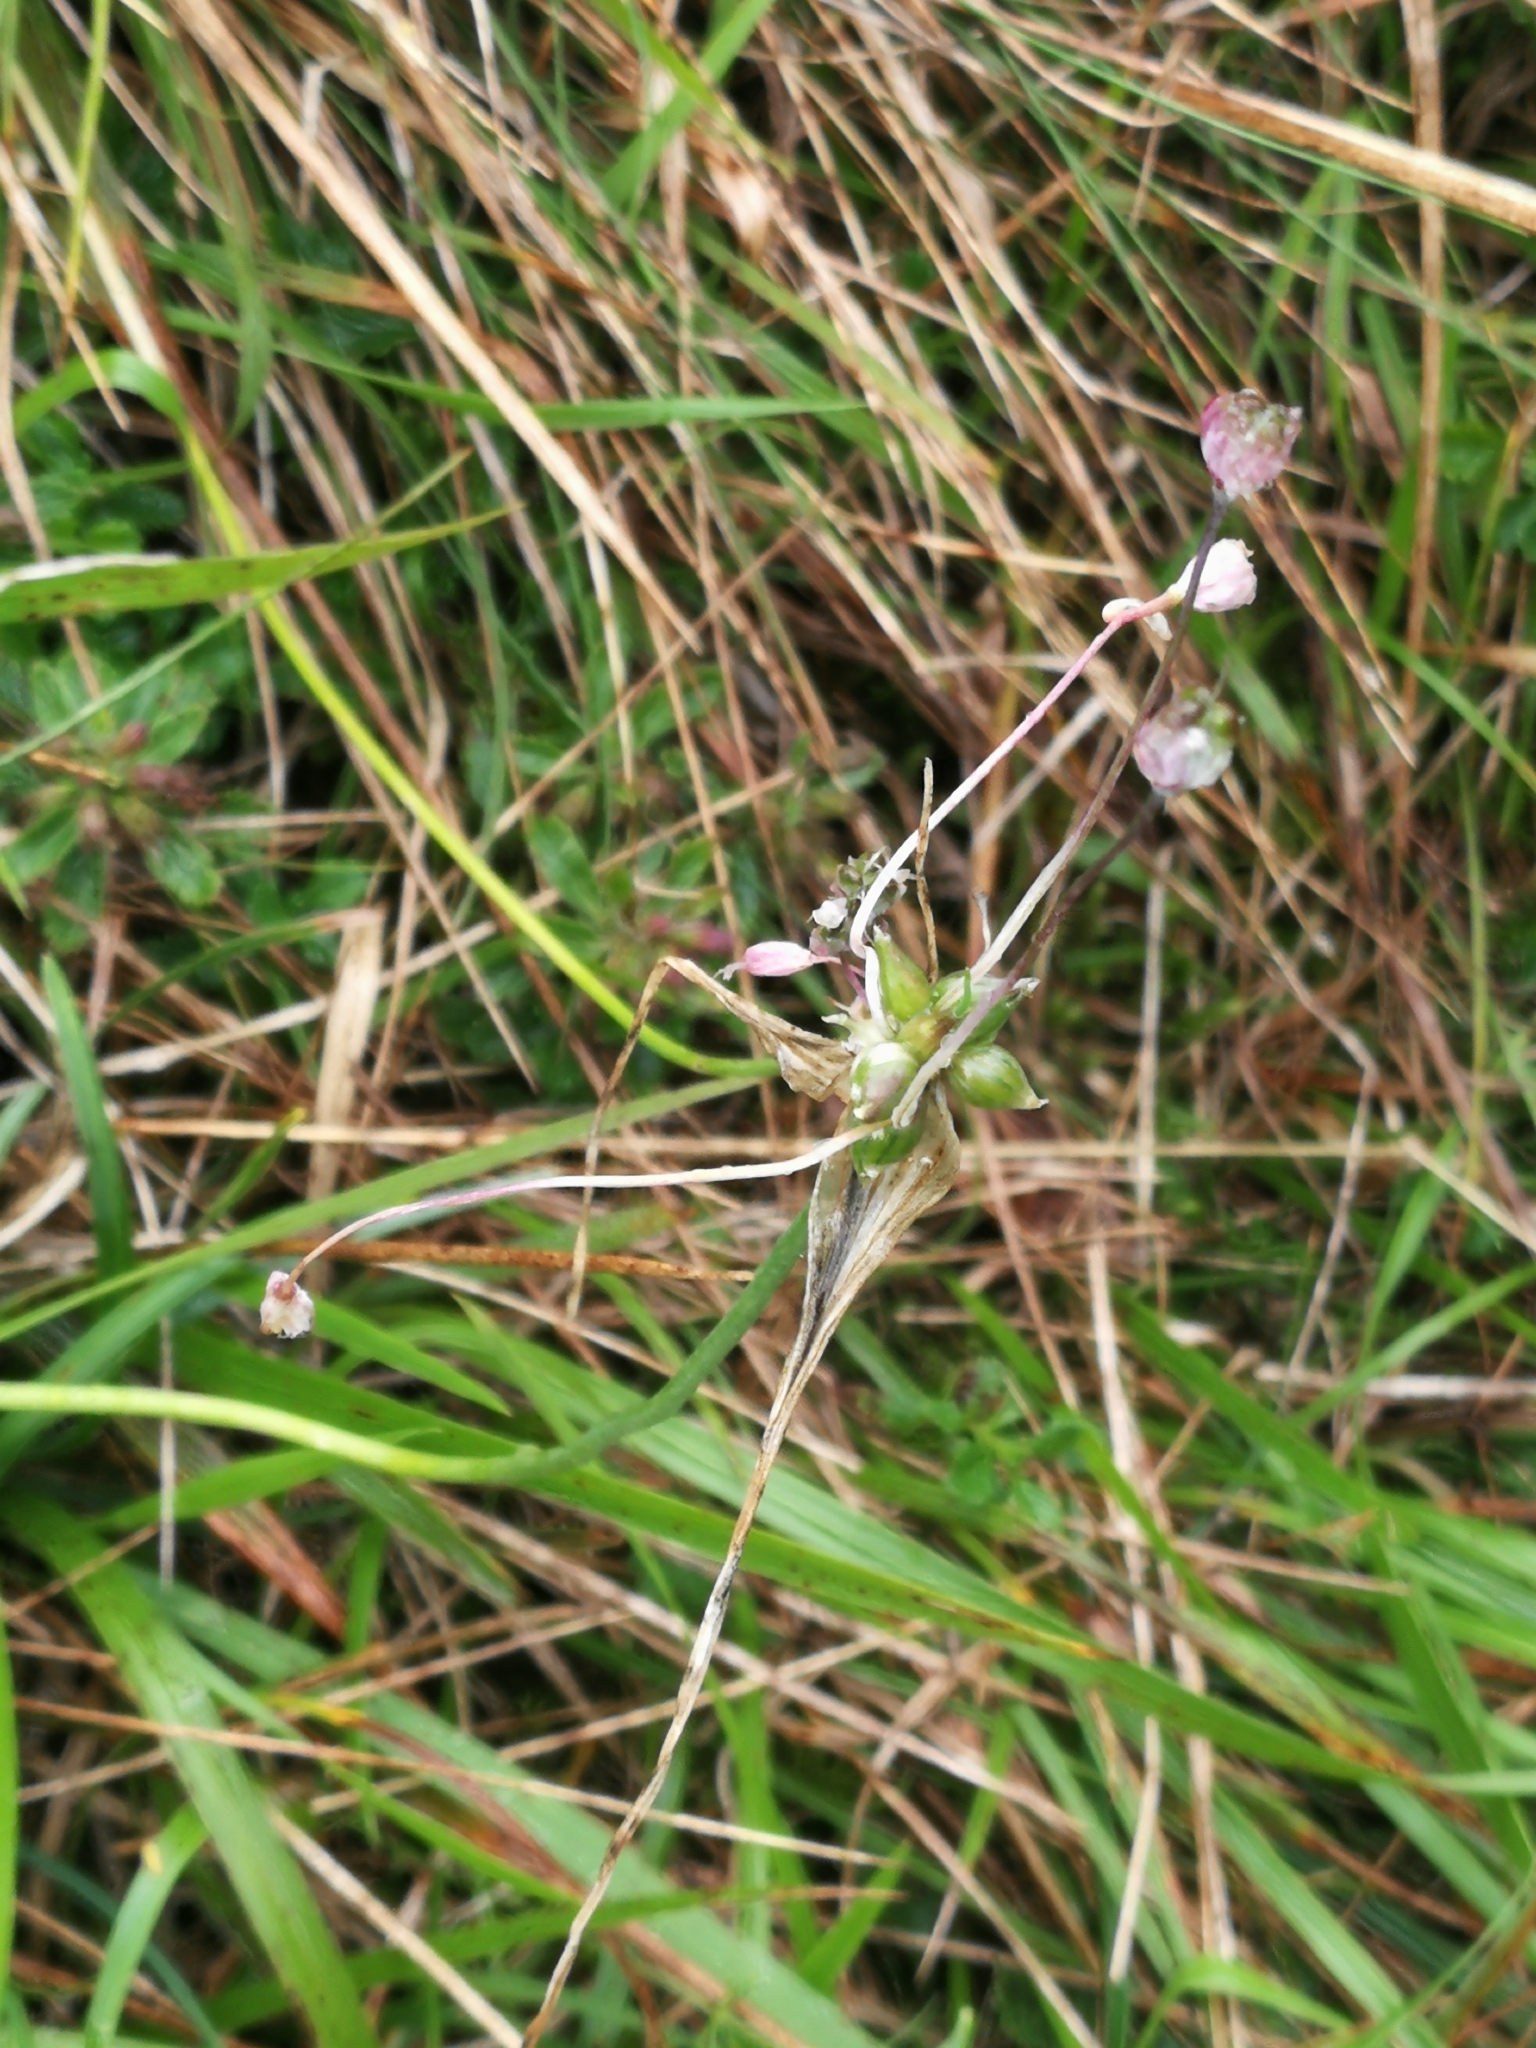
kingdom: Plantae
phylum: Tracheophyta
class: Liliopsida
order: Asparagales
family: Amaryllidaceae
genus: Allium
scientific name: Allium carinatum
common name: Keeled garlic
